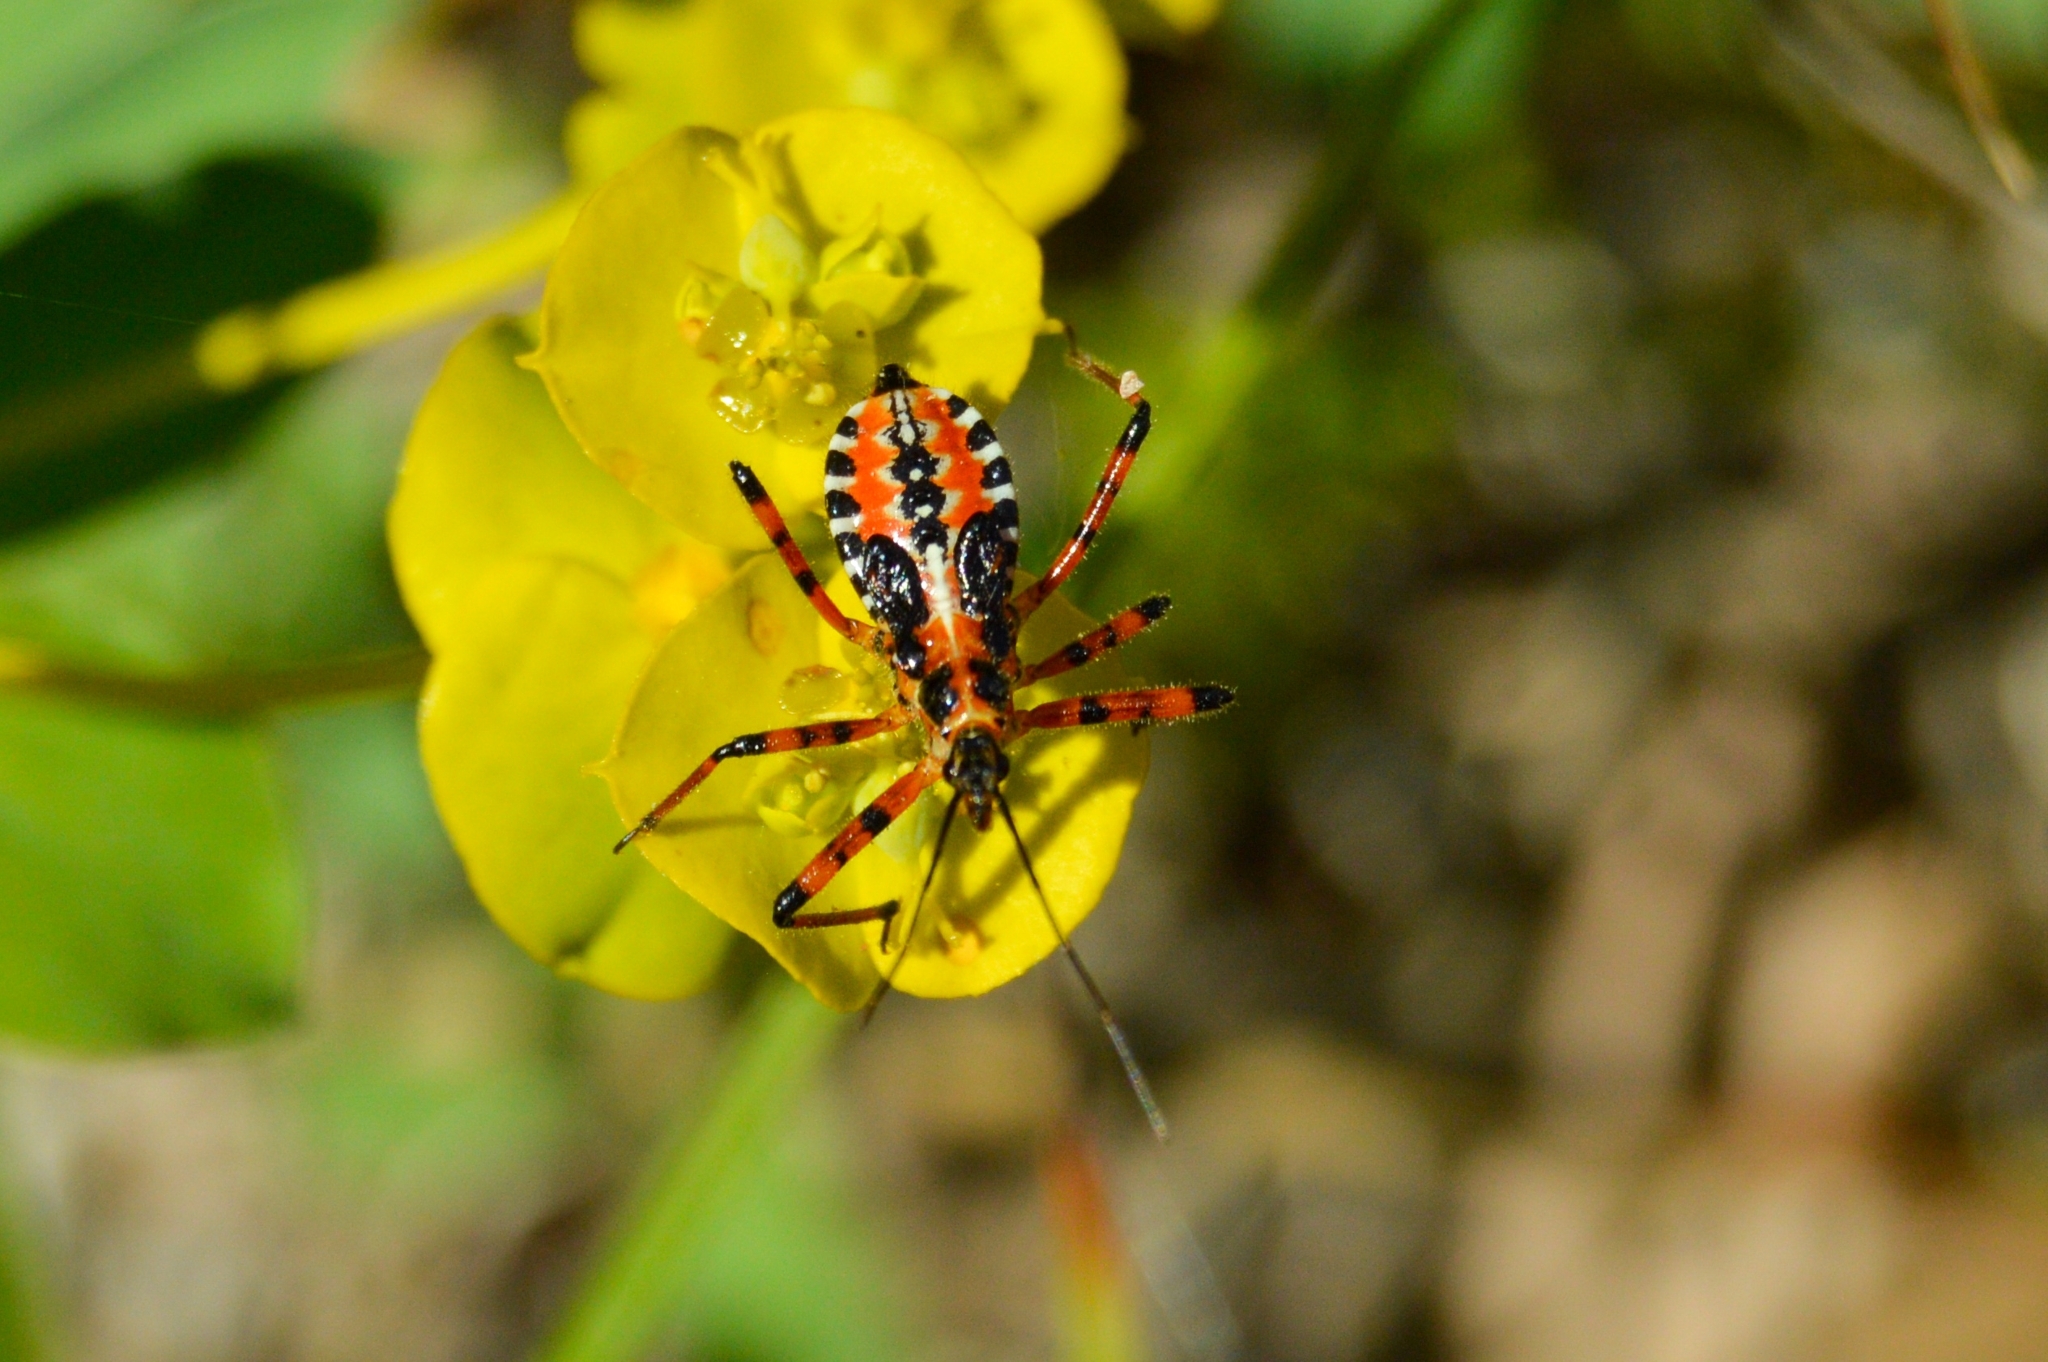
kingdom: Animalia
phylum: Arthropoda
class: Insecta
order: Hemiptera
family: Reduviidae
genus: Rhynocoris
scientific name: Rhynocoris punctiventris
